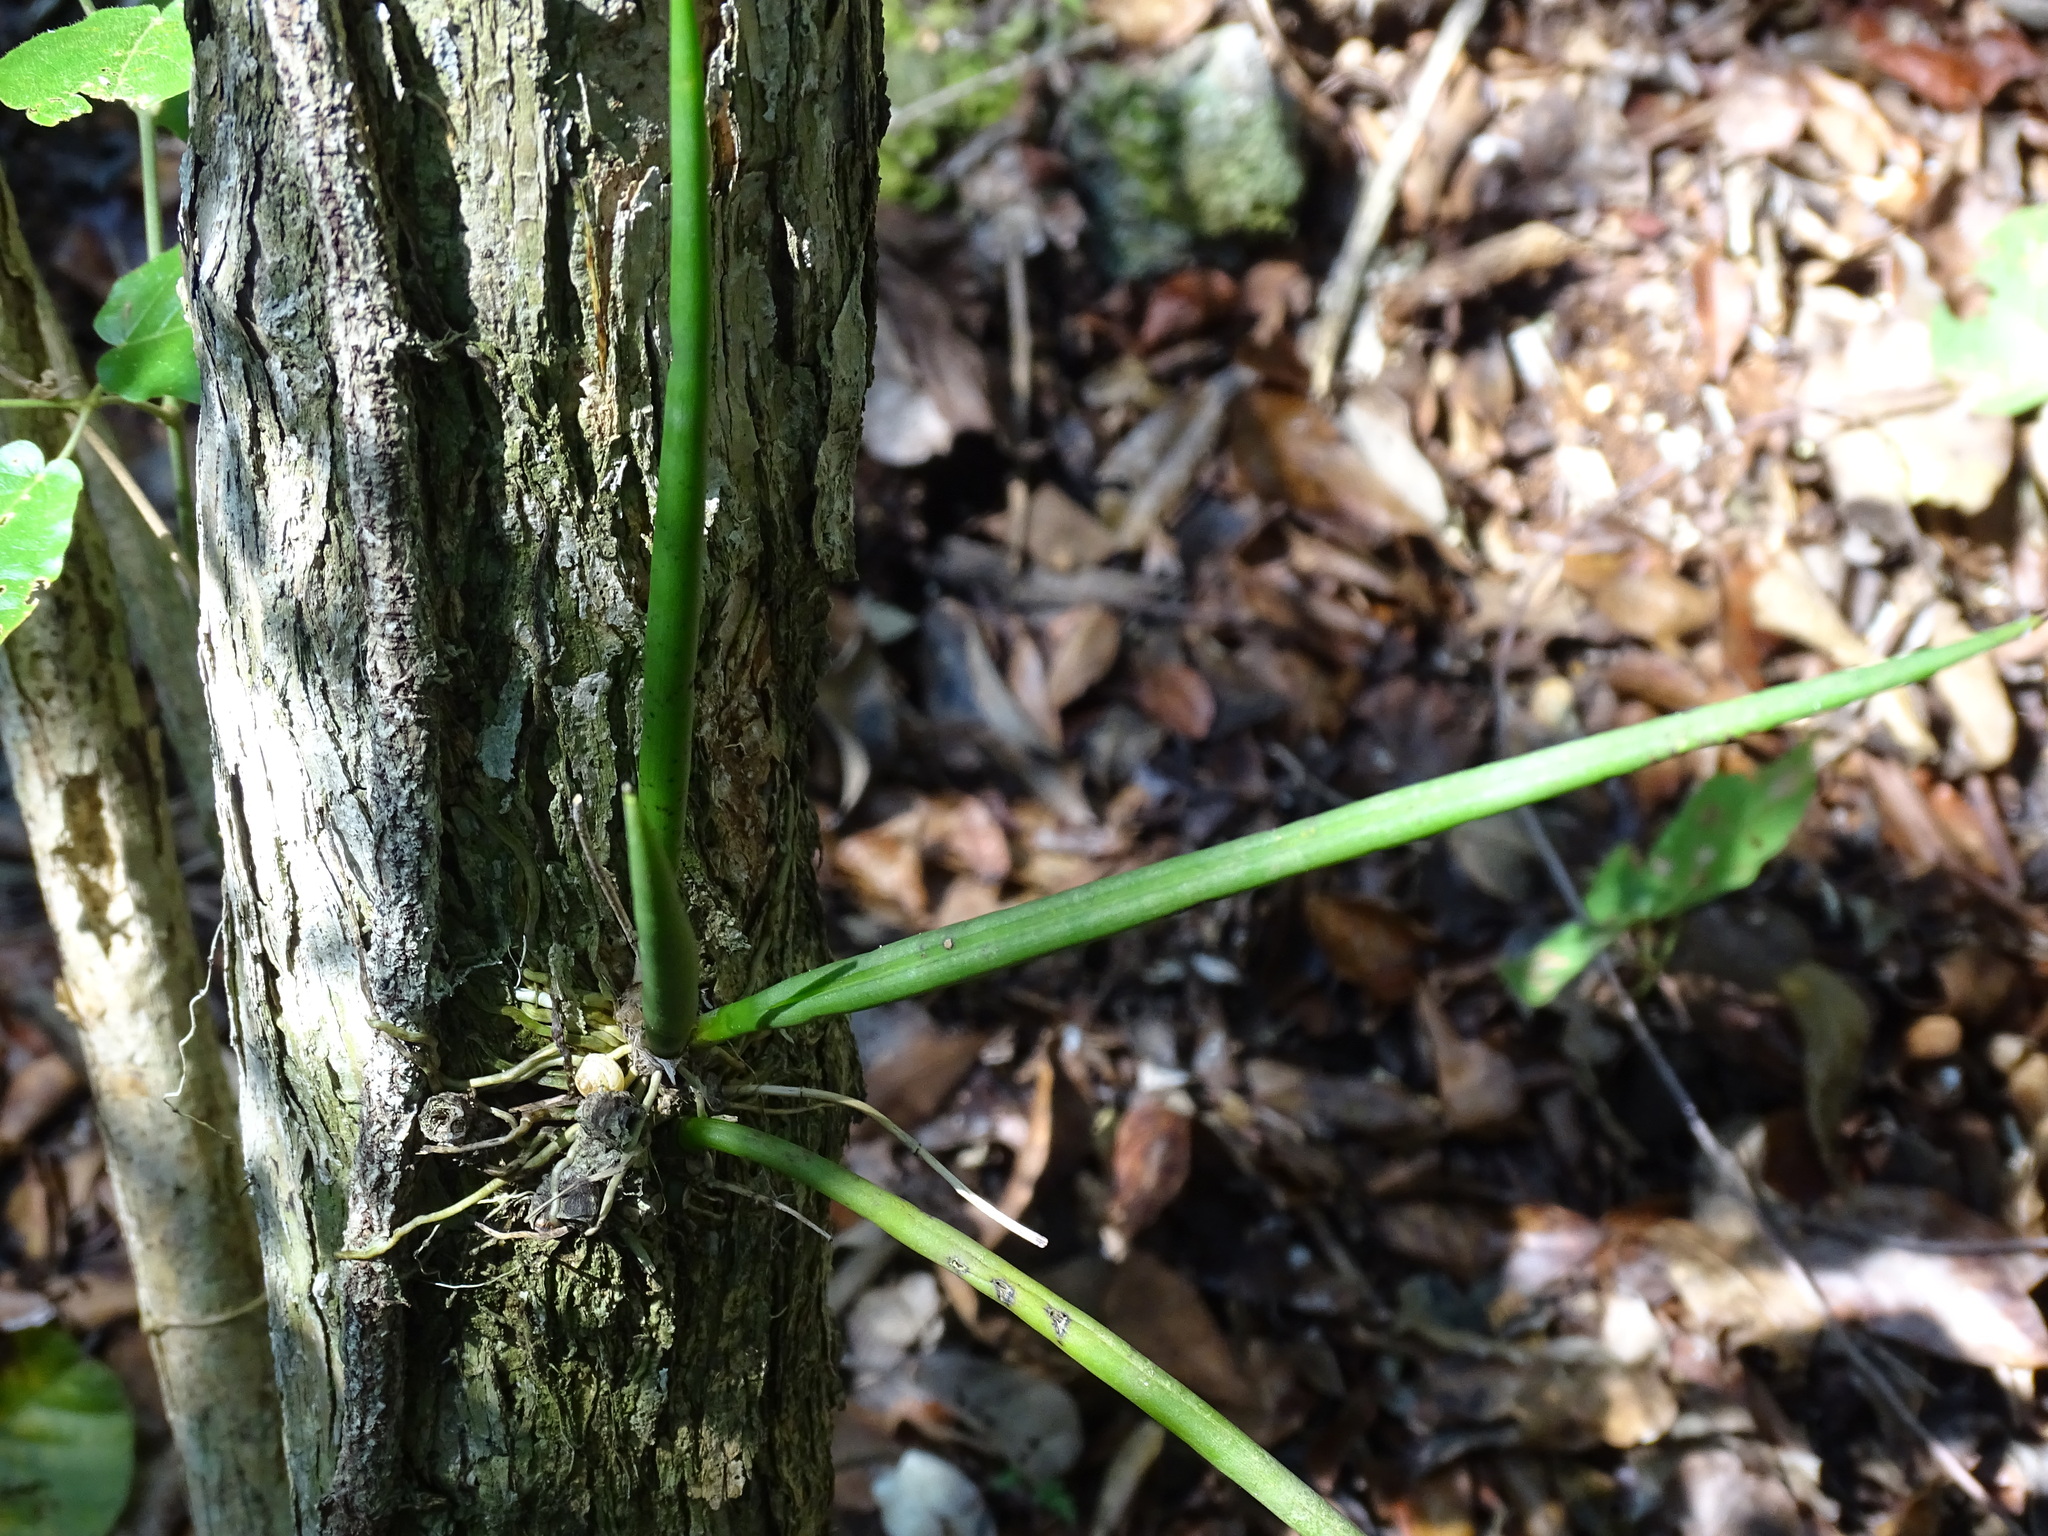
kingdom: Plantae
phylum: Tracheophyta
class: Liliopsida
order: Asparagales
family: Orchidaceae
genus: Trichocentrum
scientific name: Trichocentrum yucatanense
